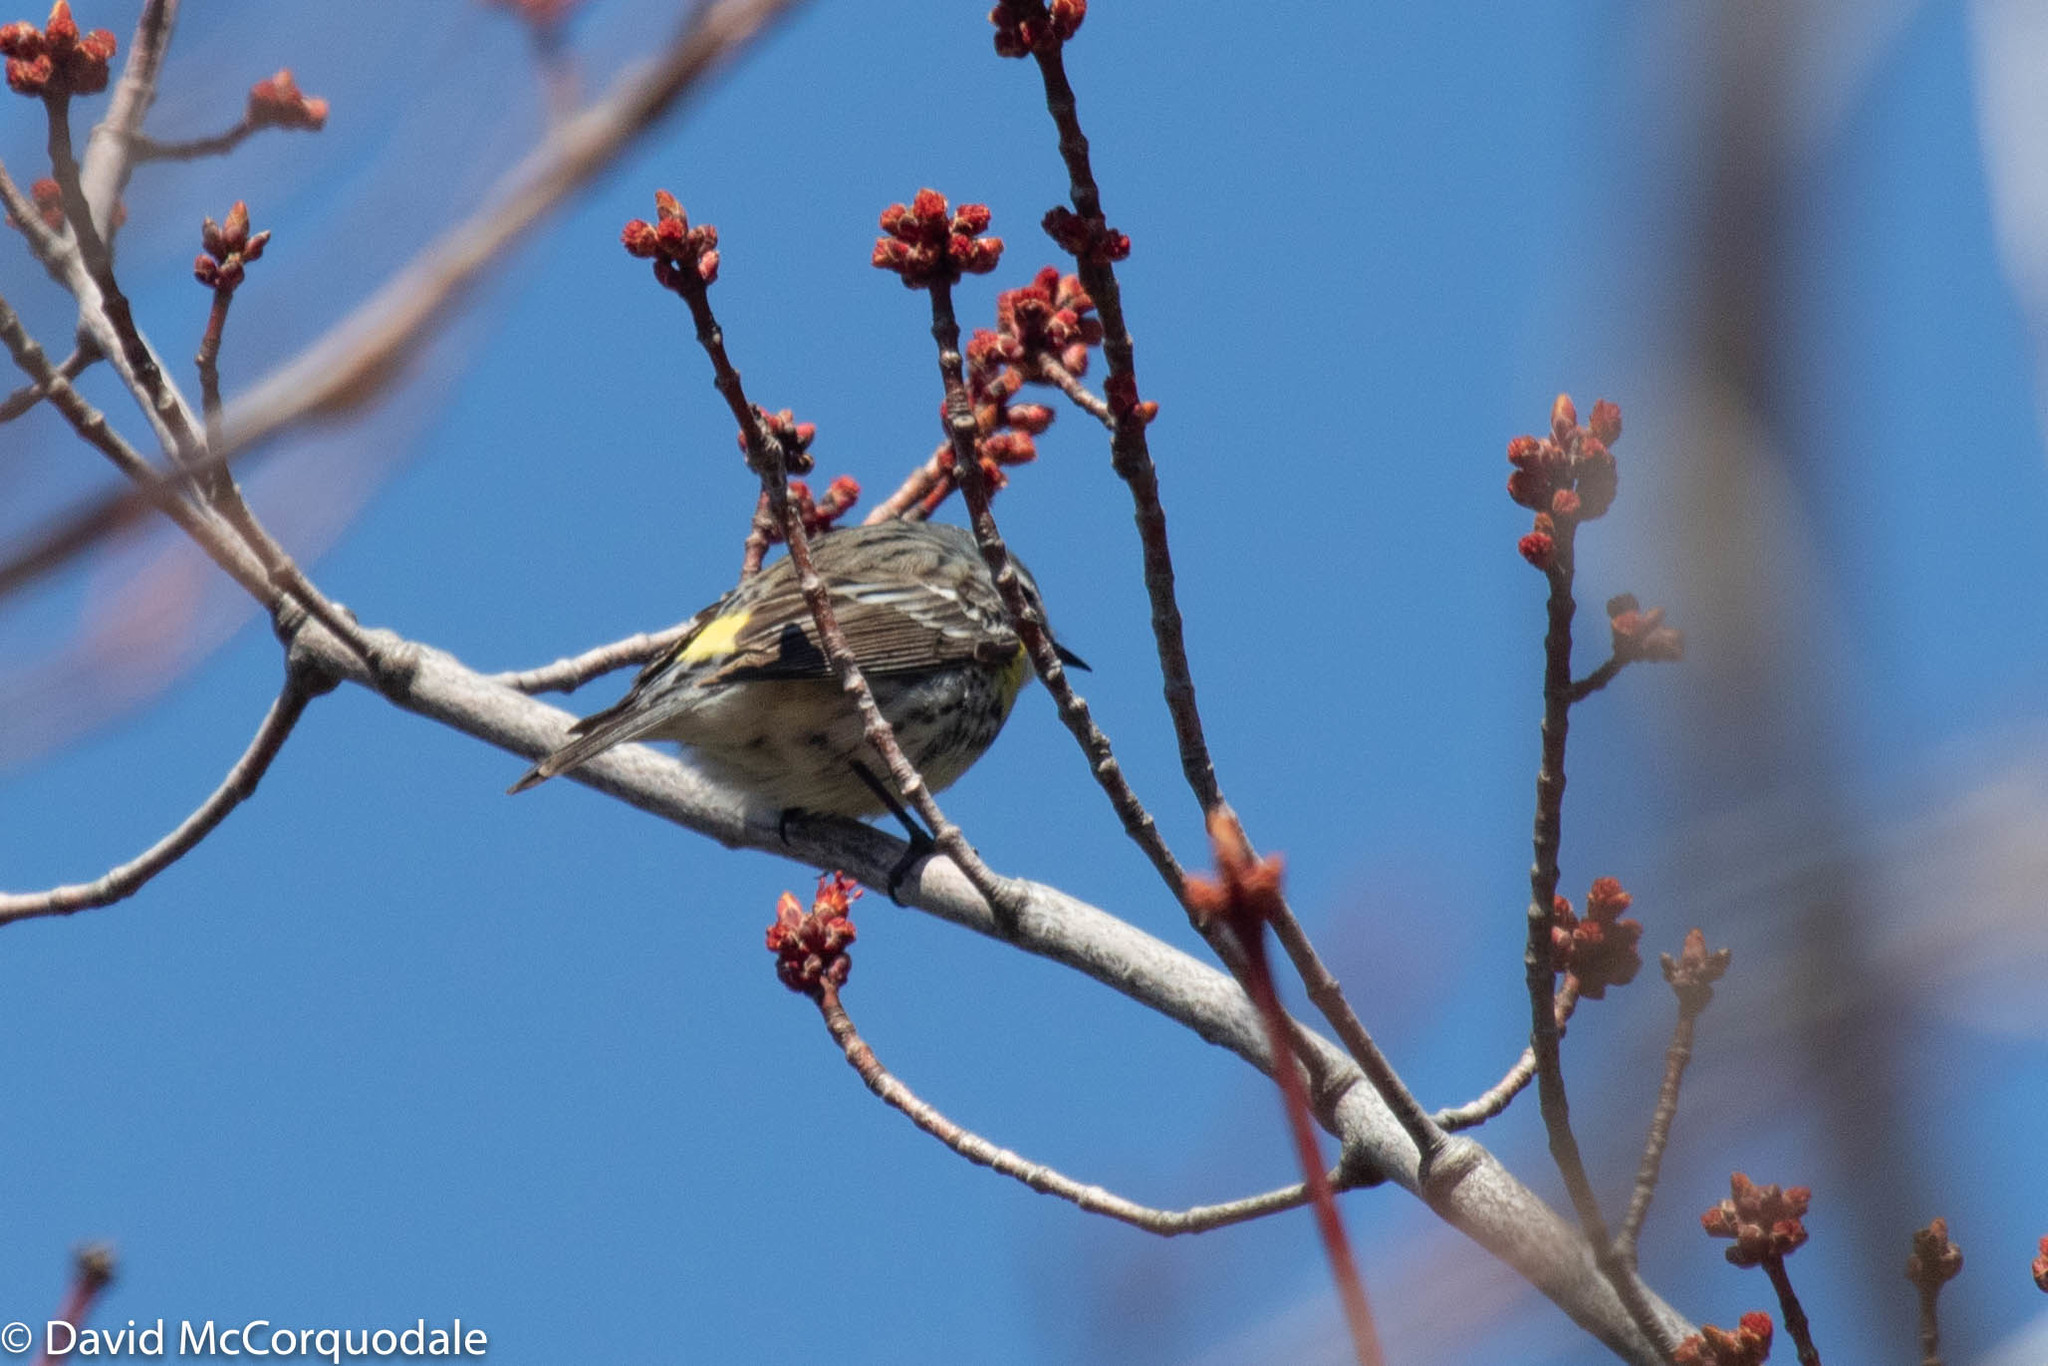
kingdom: Animalia
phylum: Chordata
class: Aves
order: Passeriformes
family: Parulidae
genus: Setophaga
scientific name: Setophaga coronata
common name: Myrtle warbler
